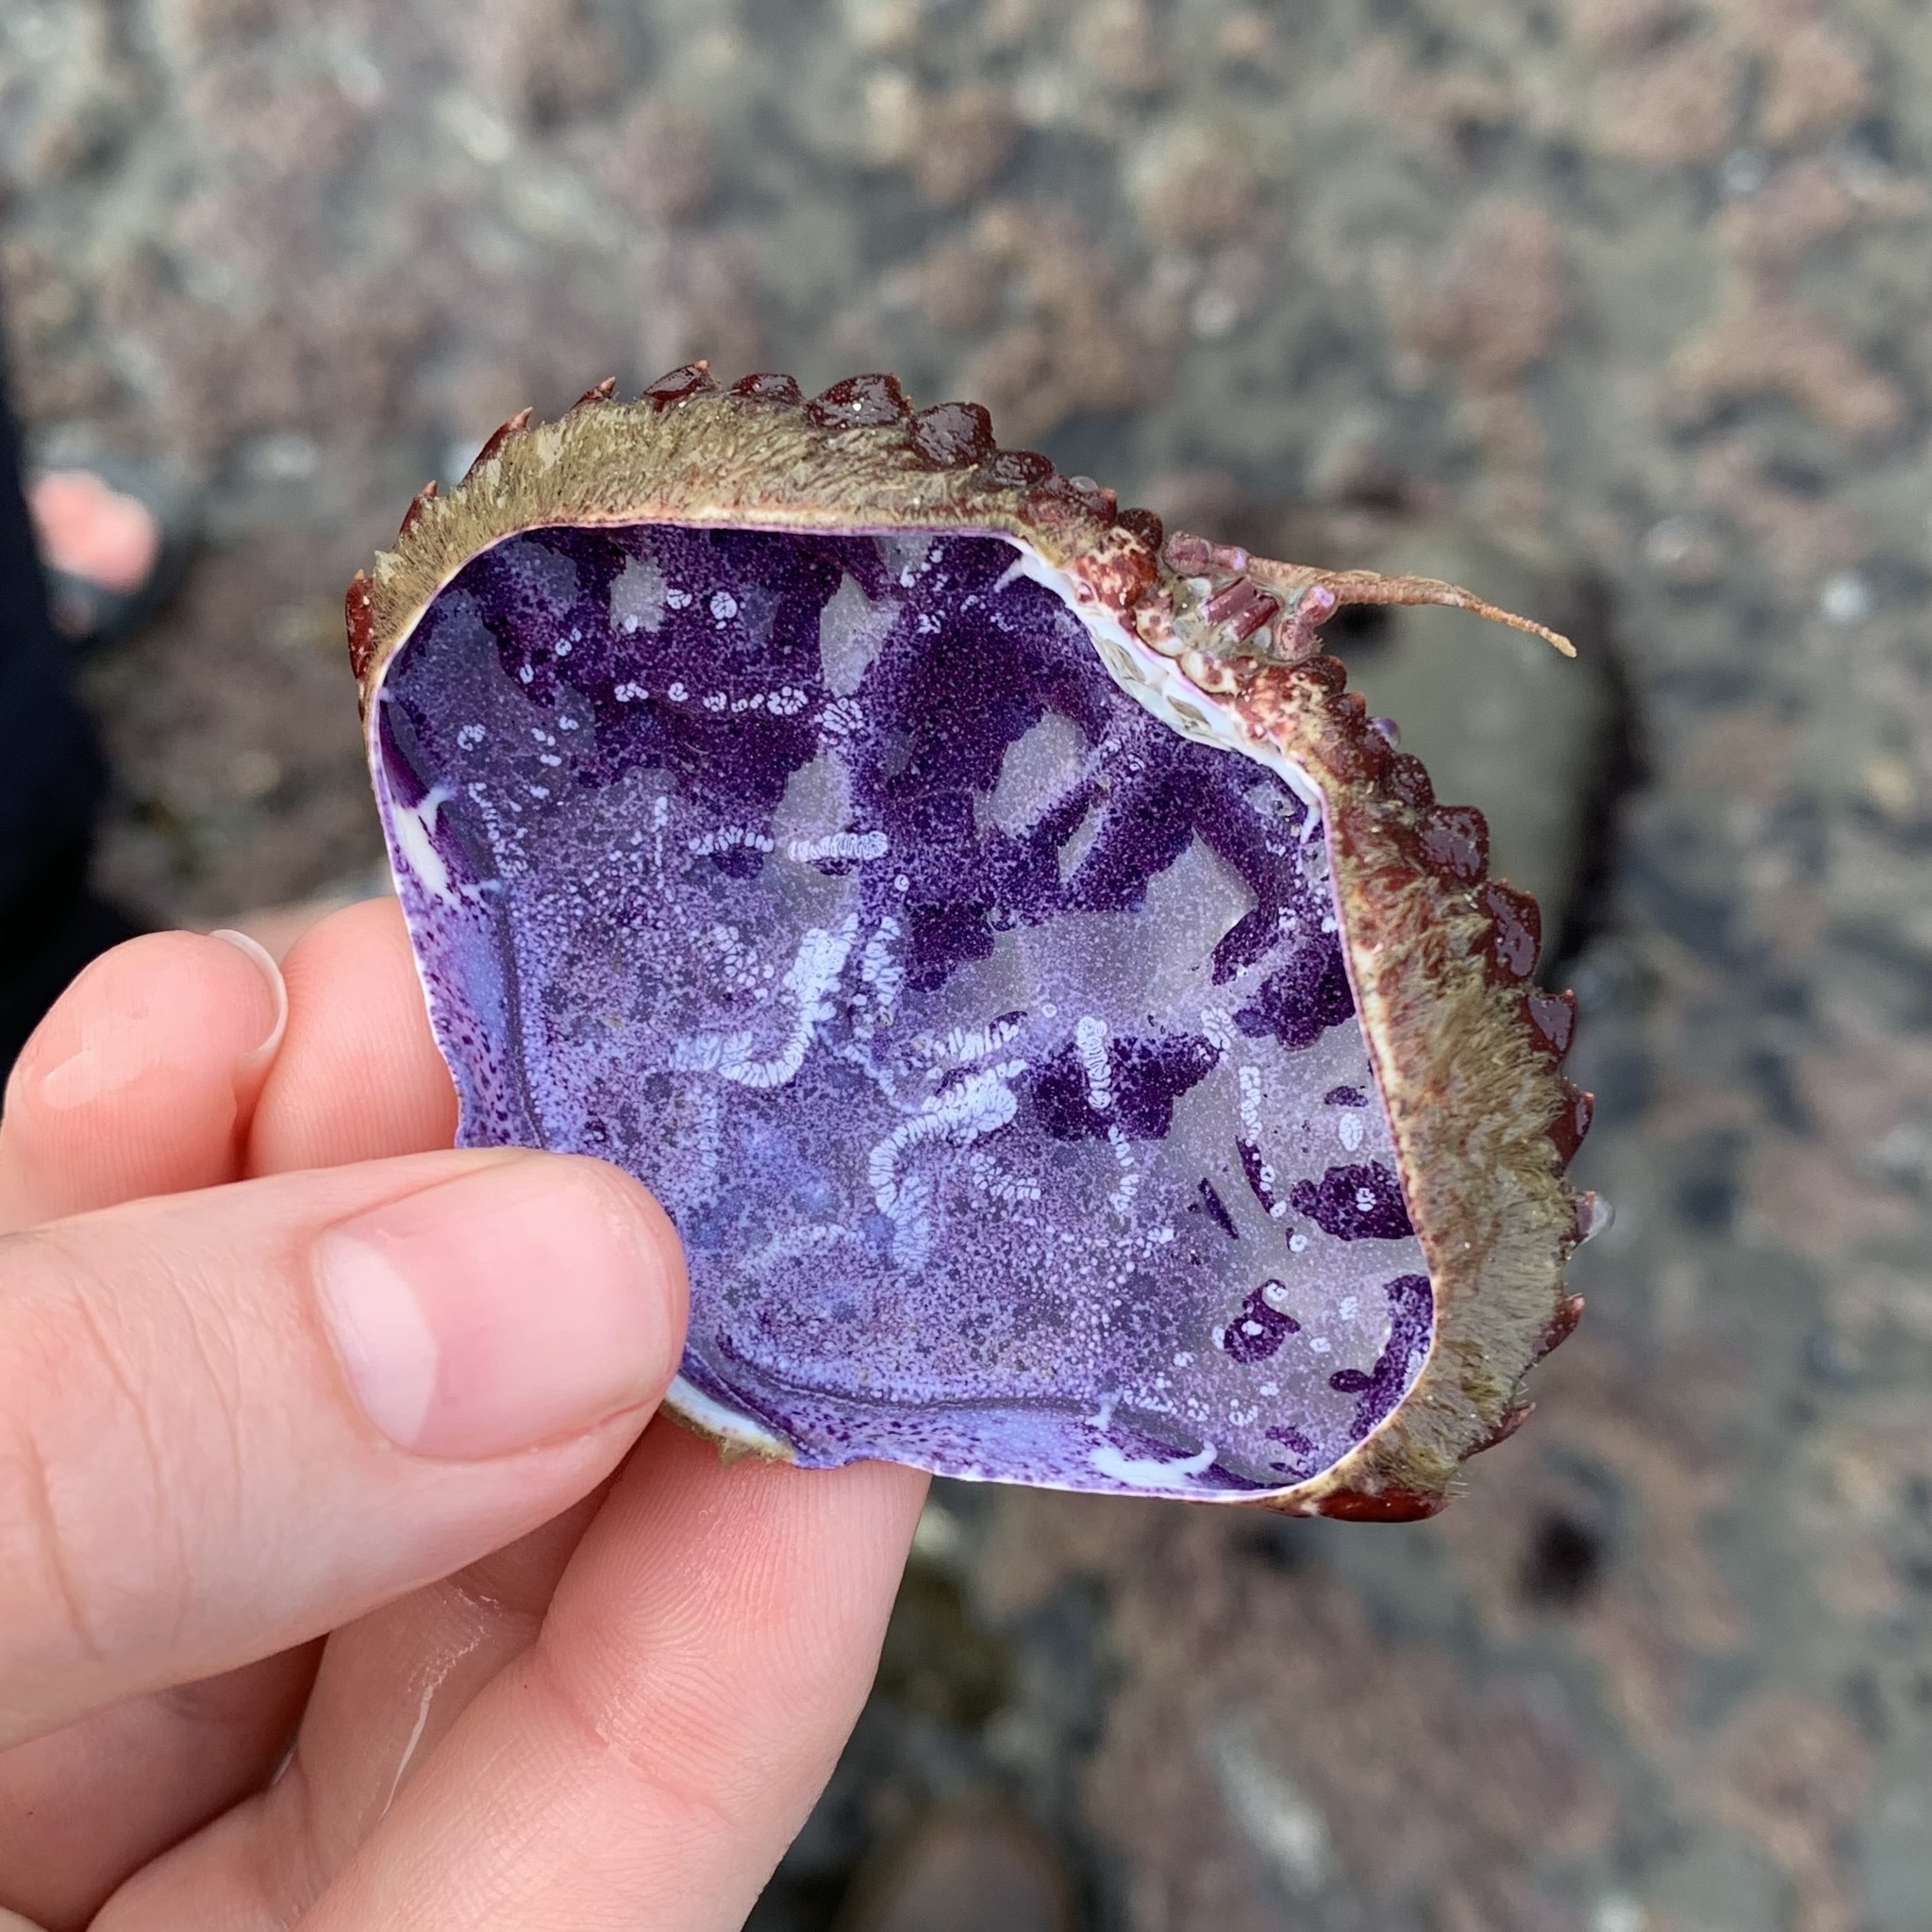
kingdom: Animalia
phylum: Arthropoda
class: Malacostraca
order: Decapoda
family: Cancridae
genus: Romaleon
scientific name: Romaleon antennarium
